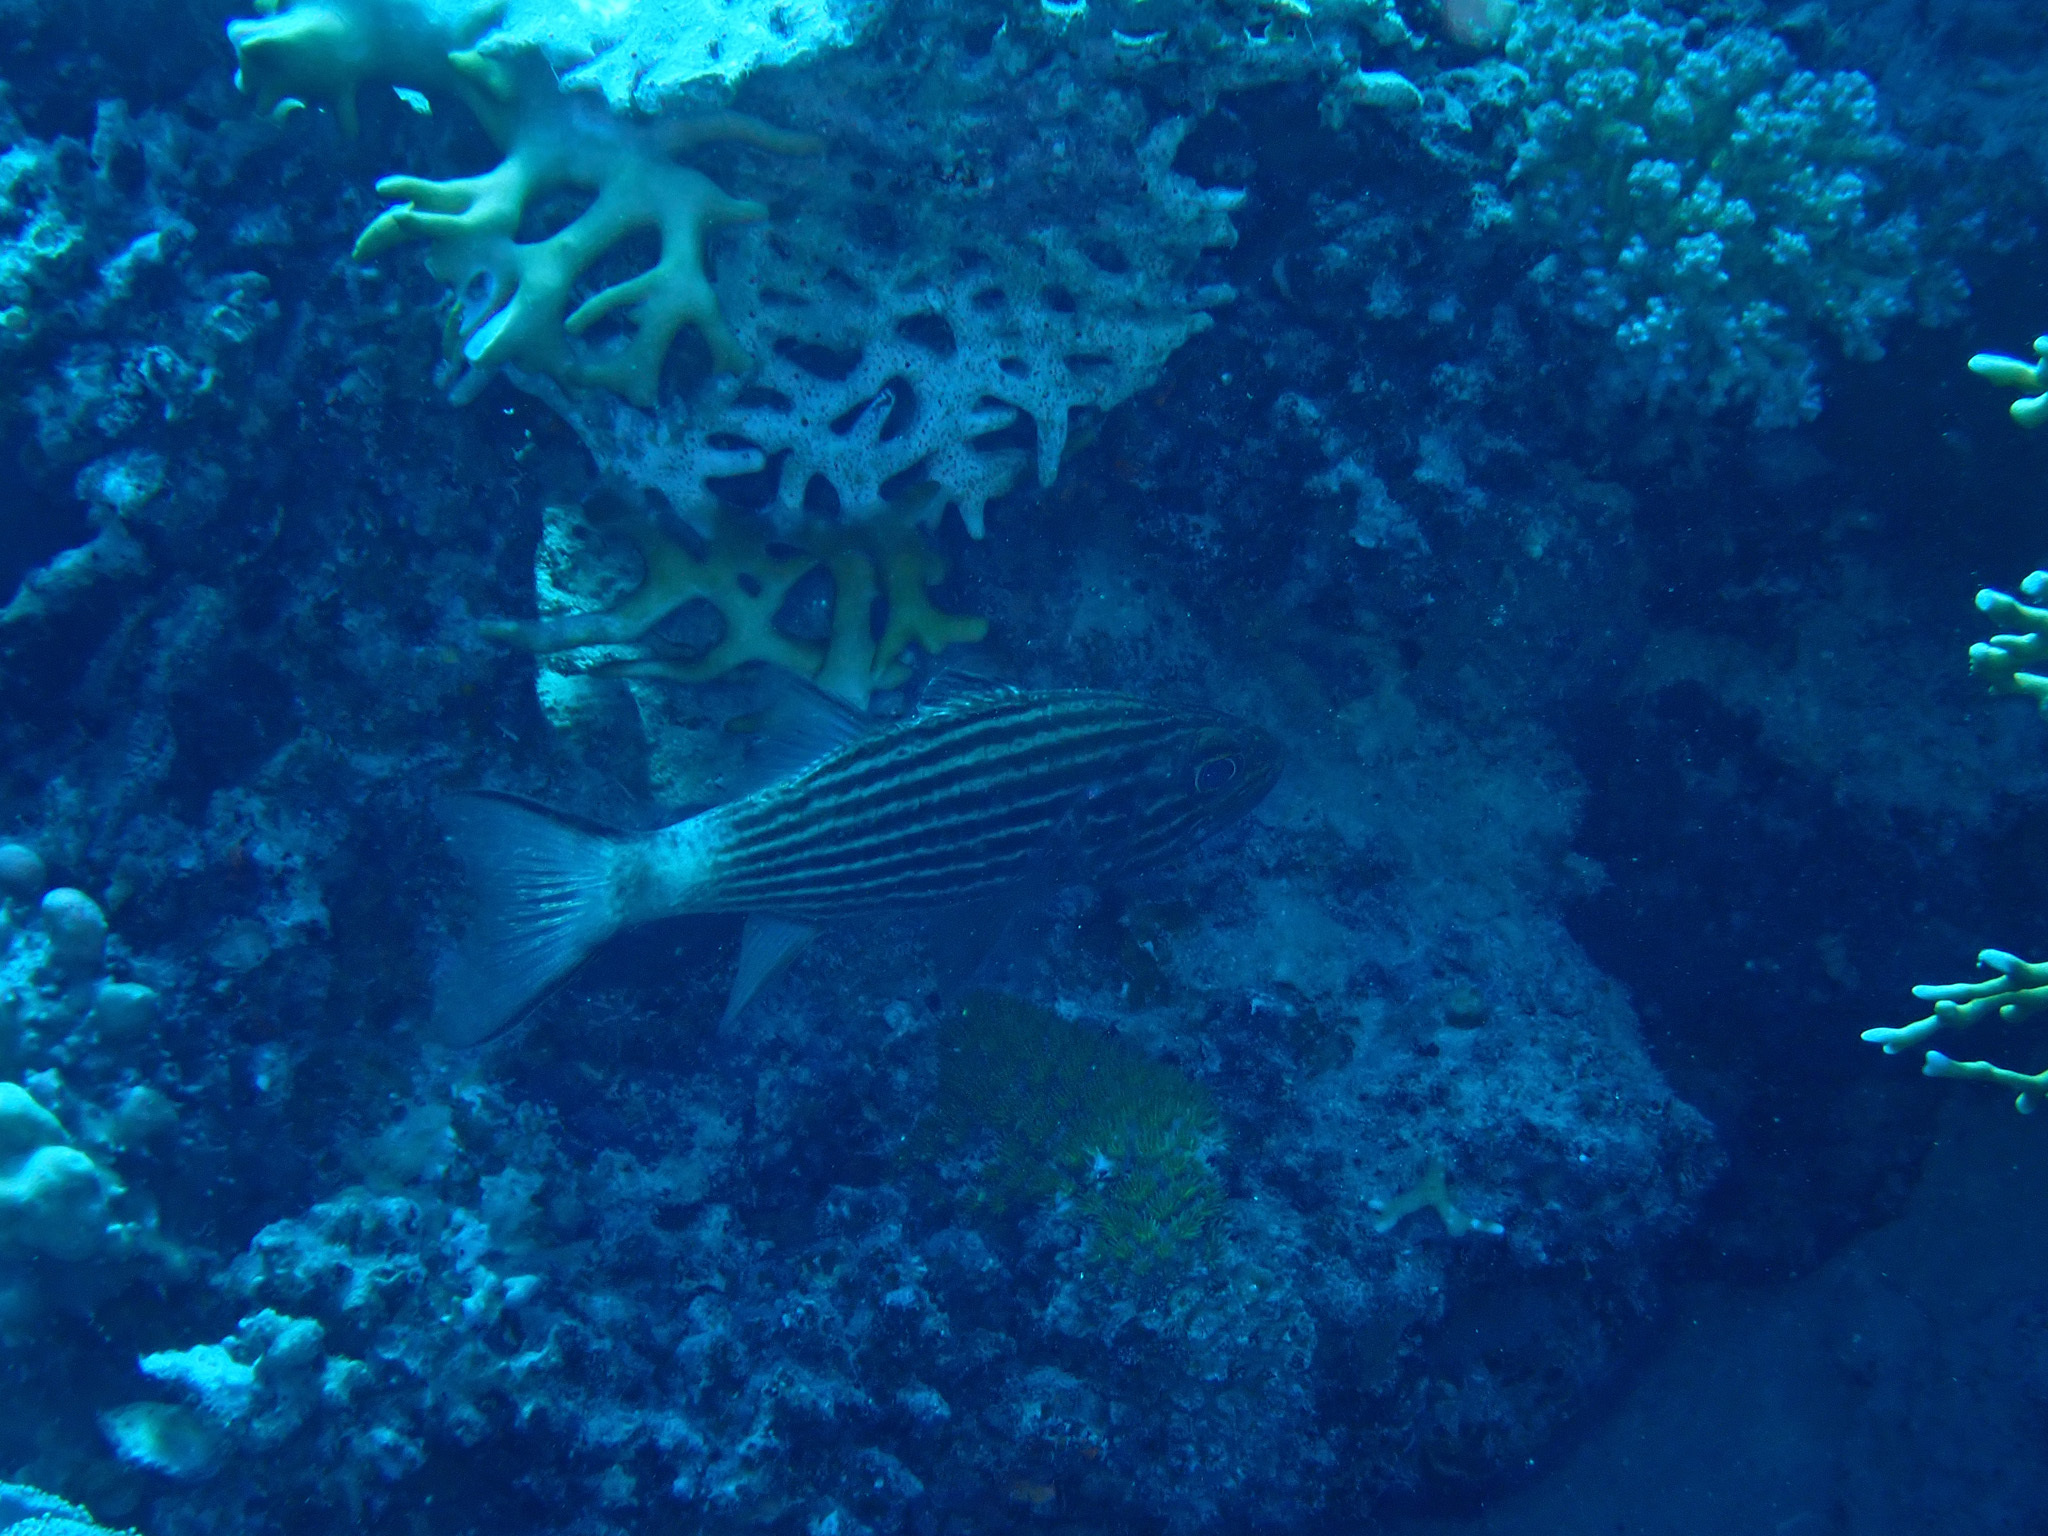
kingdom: Animalia
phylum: Chordata
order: Perciformes
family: Apogonidae
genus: Cheilodipterus
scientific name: Cheilodipterus macrodon
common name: Eight-lined cardinalfish
